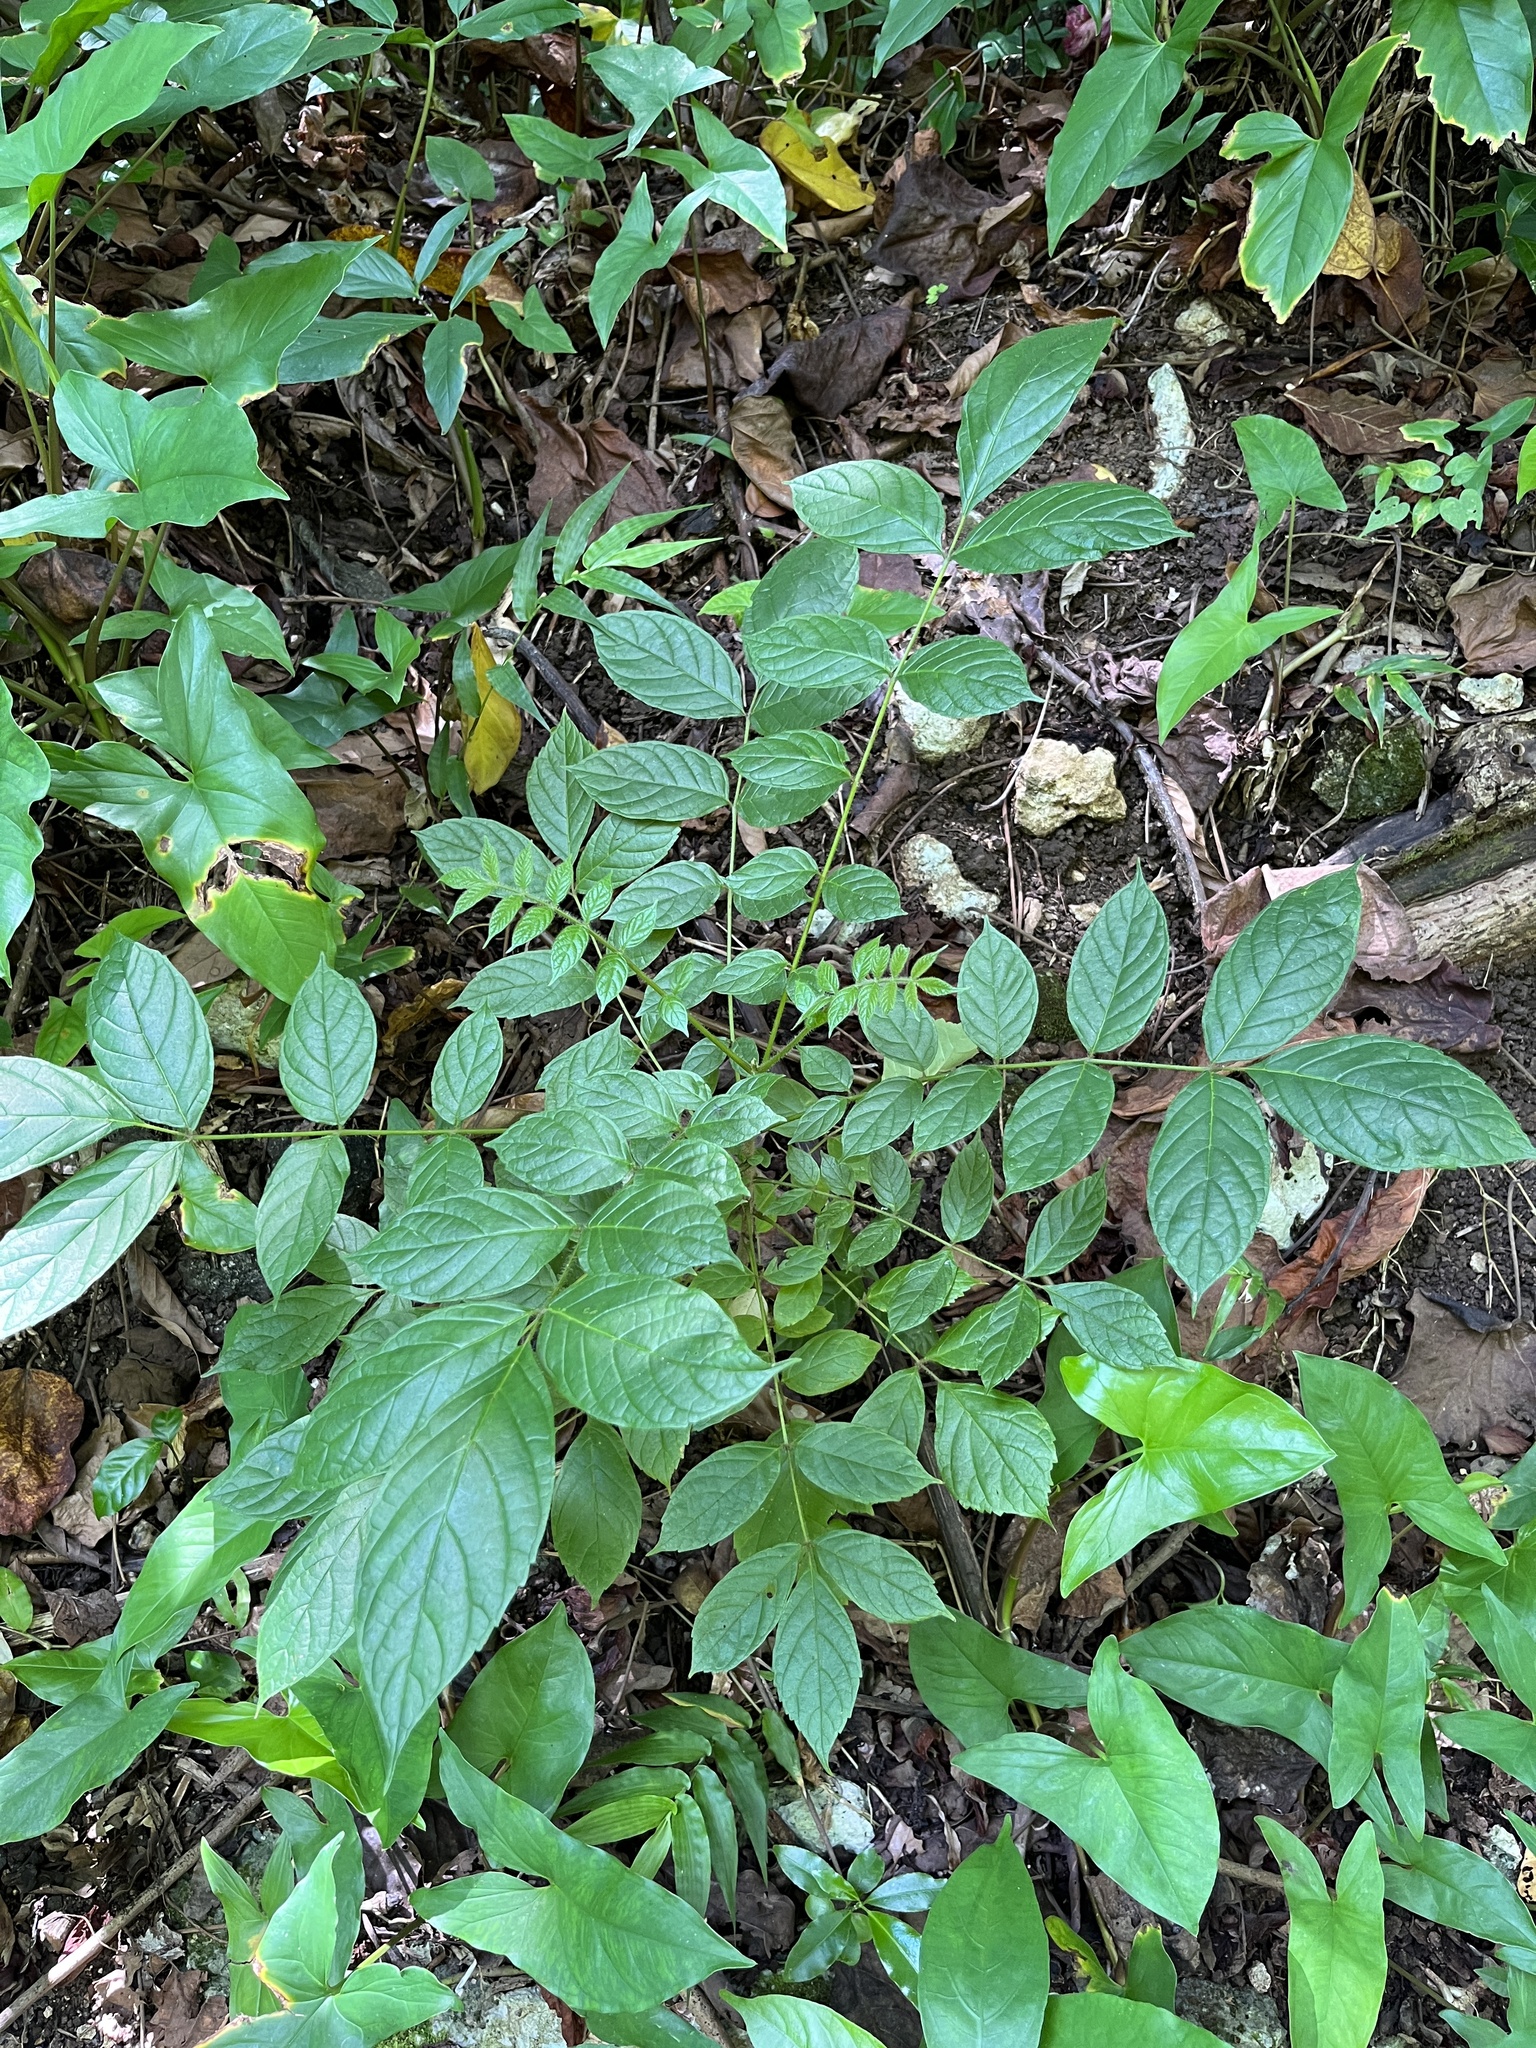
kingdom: Plantae
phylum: Tracheophyta
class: Magnoliopsida
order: Lamiales
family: Bignoniaceae
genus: Spathodea
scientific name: Spathodea campanulata
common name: African tuliptree
